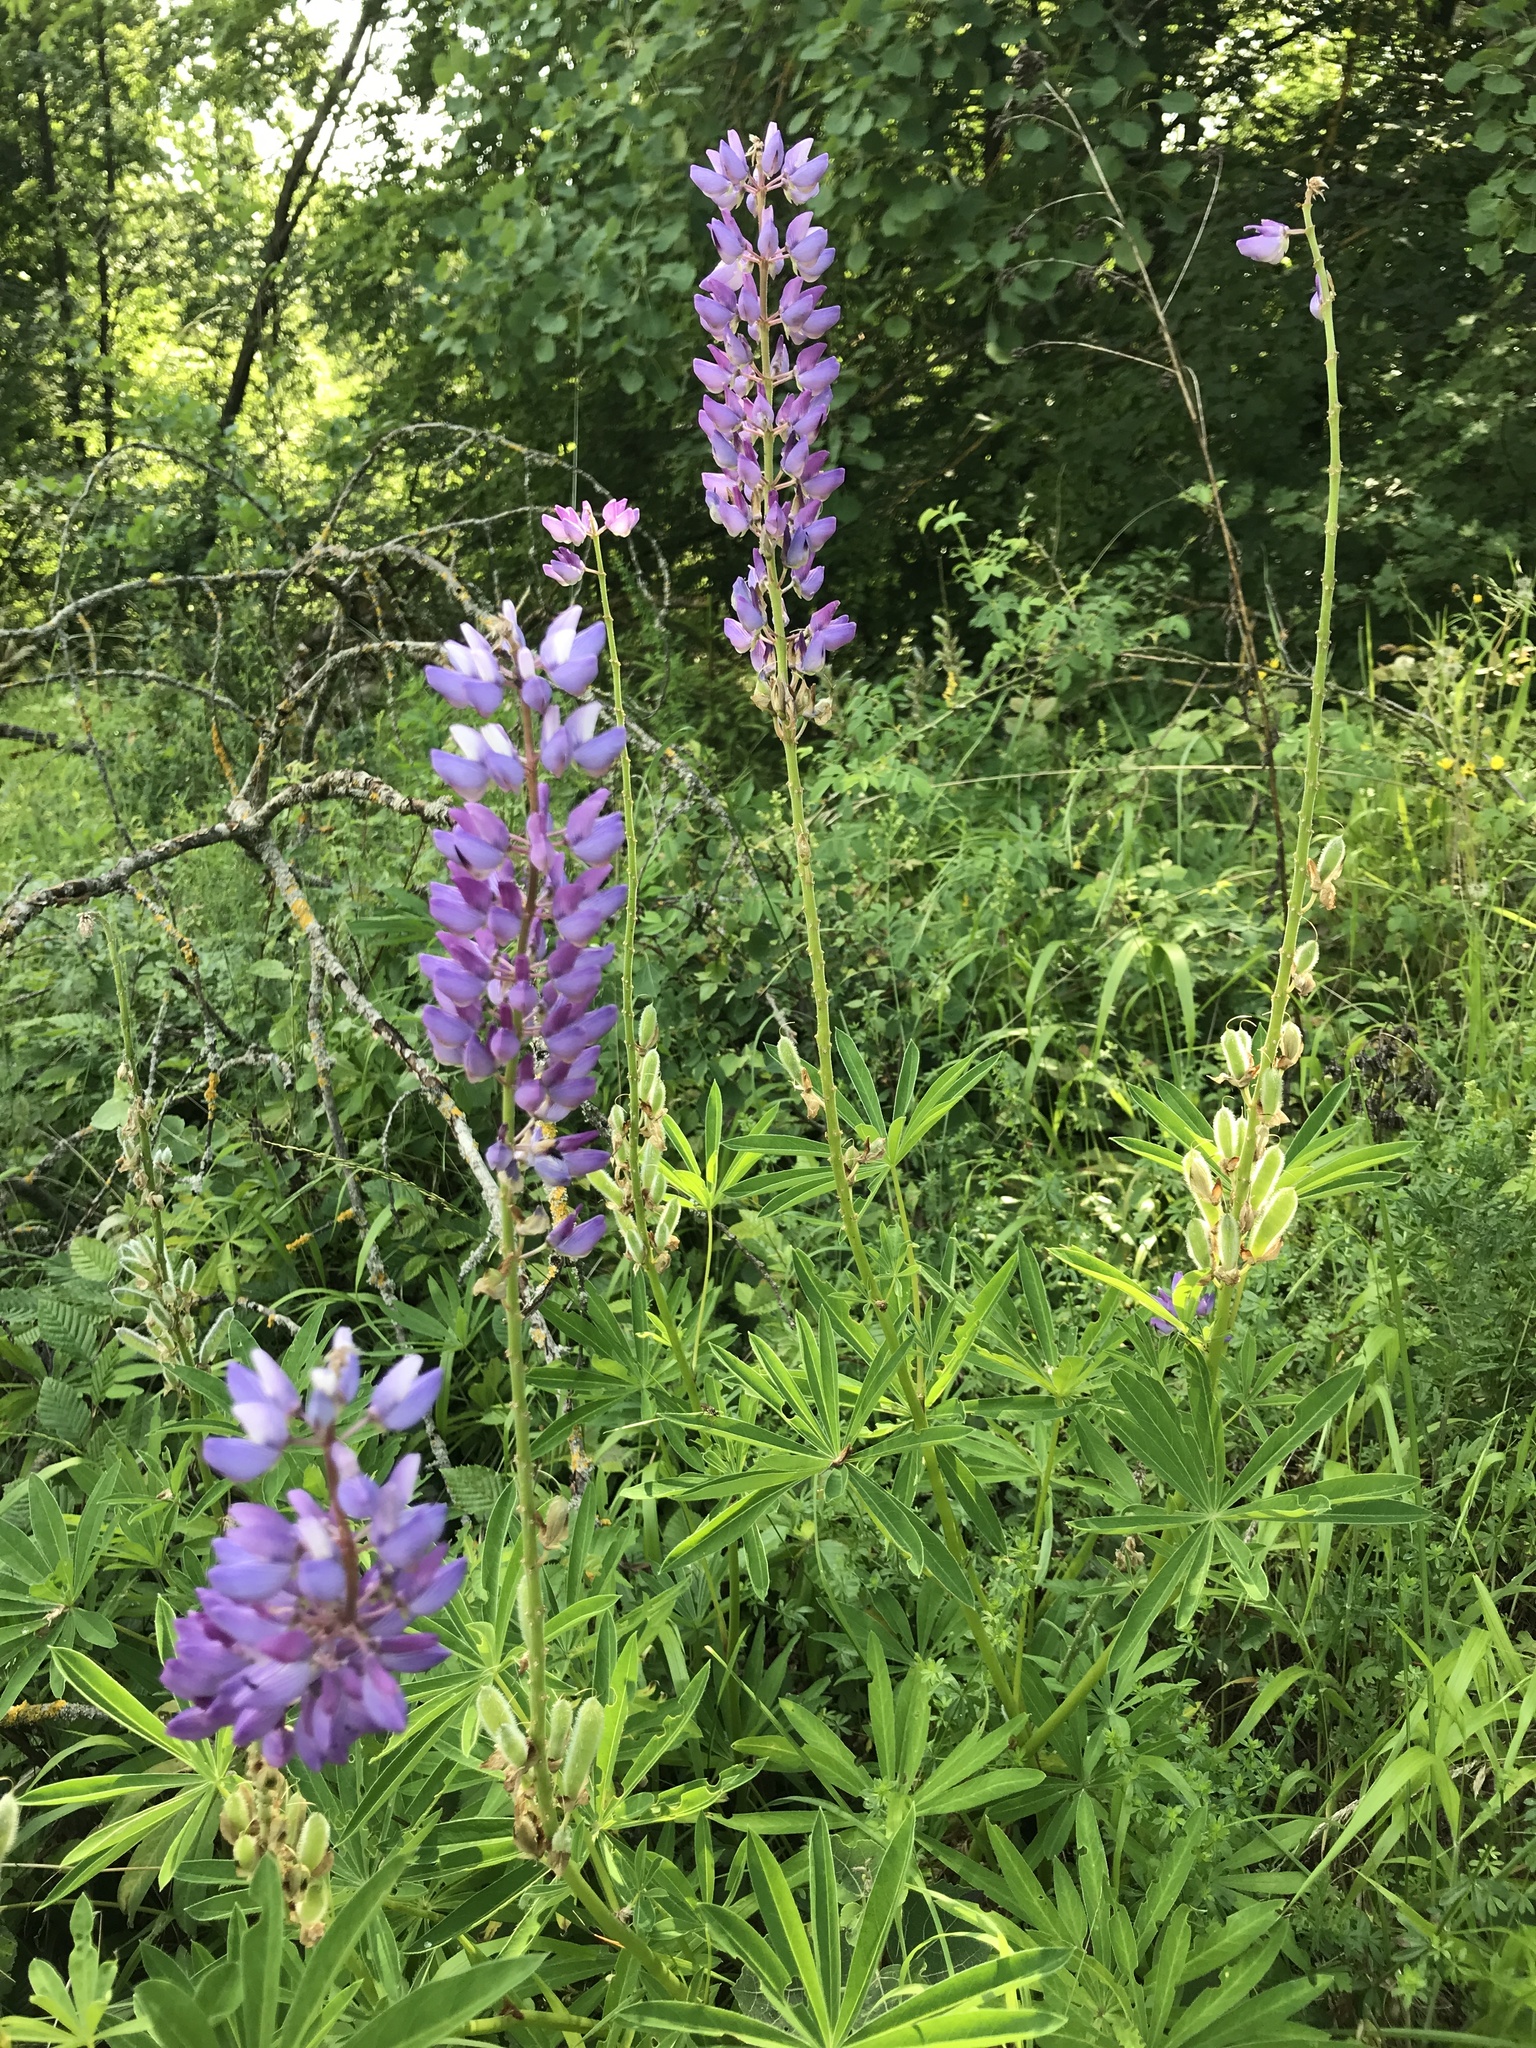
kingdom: Plantae
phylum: Tracheophyta
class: Magnoliopsida
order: Fabales
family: Fabaceae
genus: Lupinus
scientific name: Lupinus polyphyllus
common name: Garden lupin
